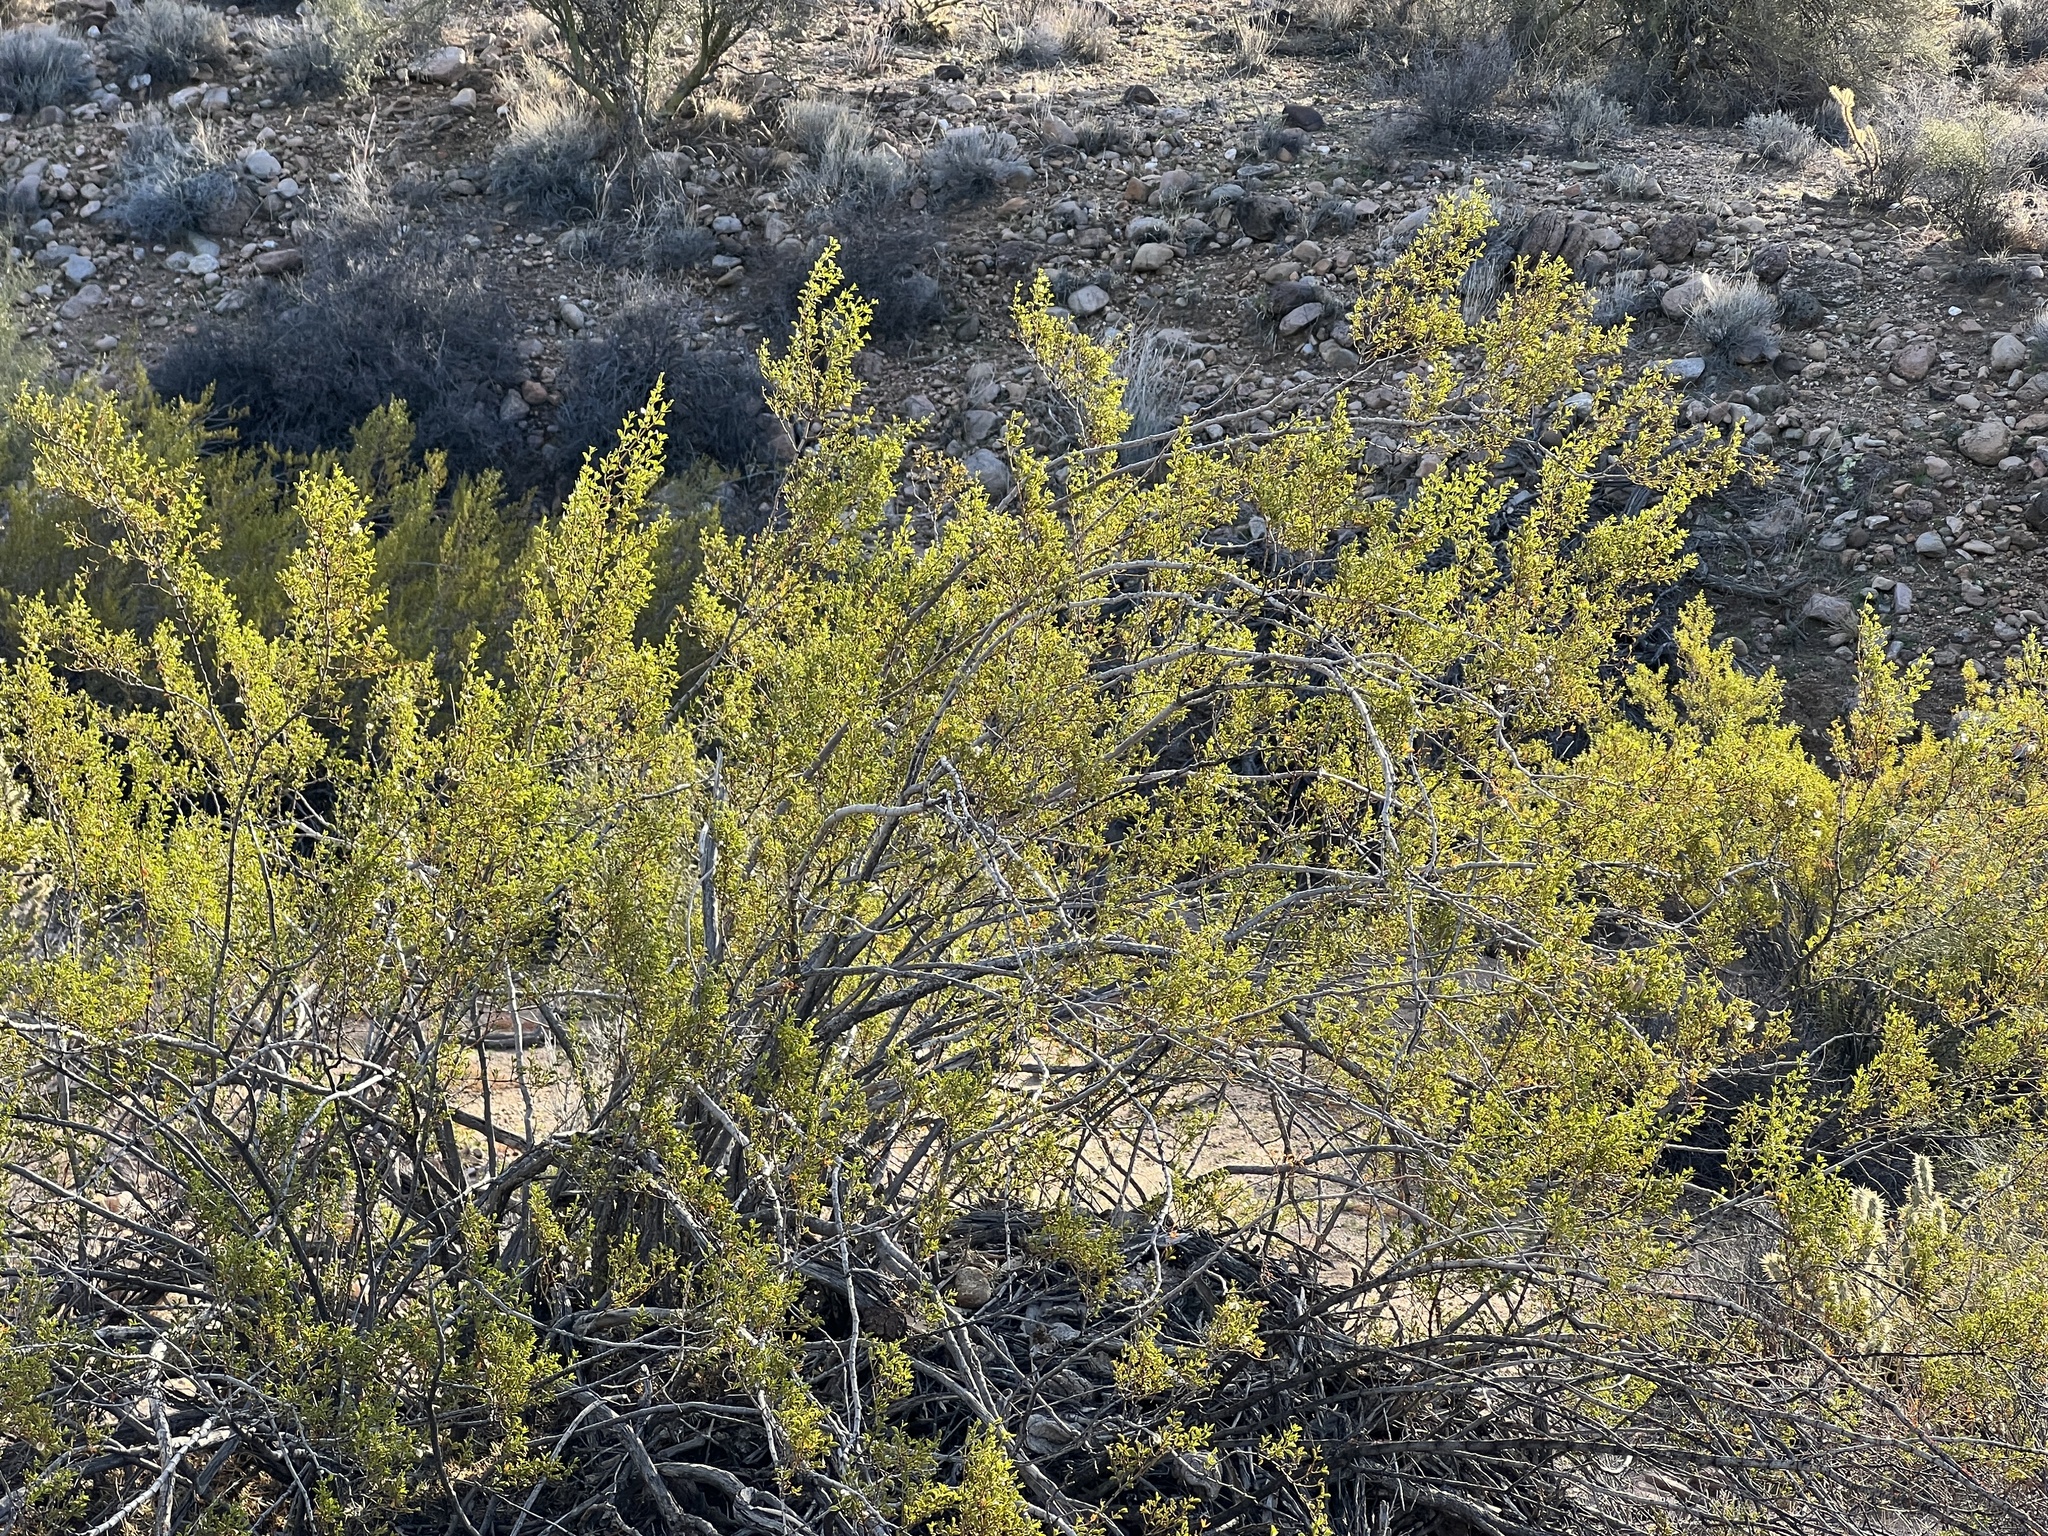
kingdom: Plantae
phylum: Tracheophyta
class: Magnoliopsida
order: Zygophyllales
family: Zygophyllaceae
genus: Larrea
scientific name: Larrea tridentata
